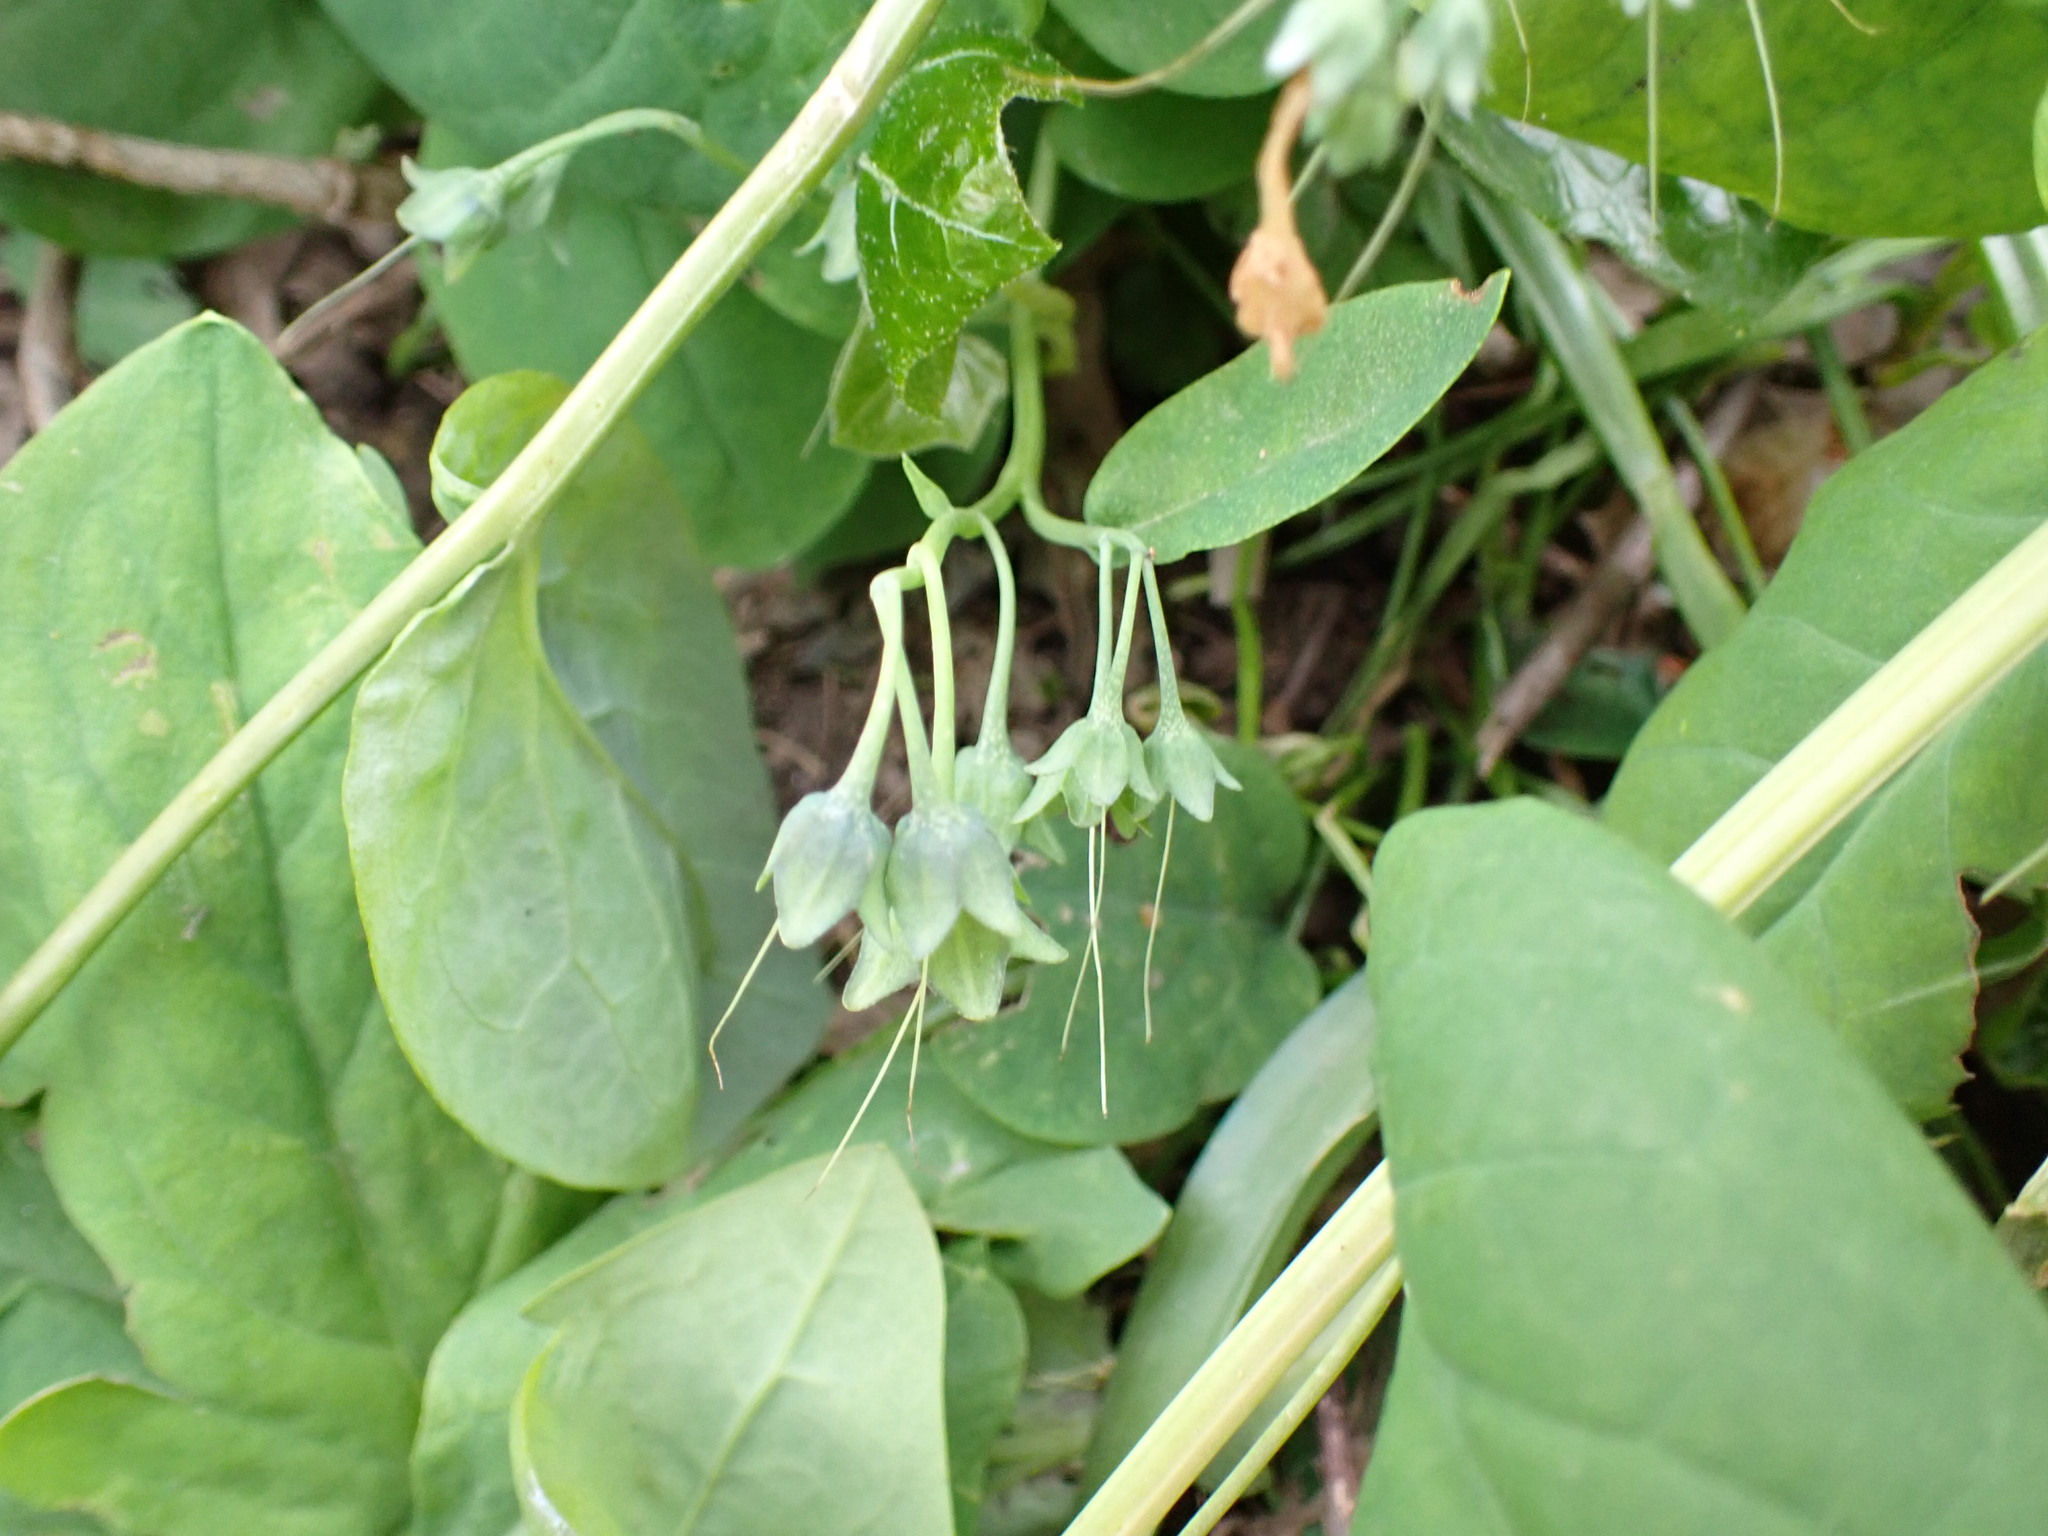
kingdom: Plantae
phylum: Tracheophyta
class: Magnoliopsida
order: Boraginales
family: Boraginaceae
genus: Mertensia
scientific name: Mertensia virginica
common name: Virginia bluebells
